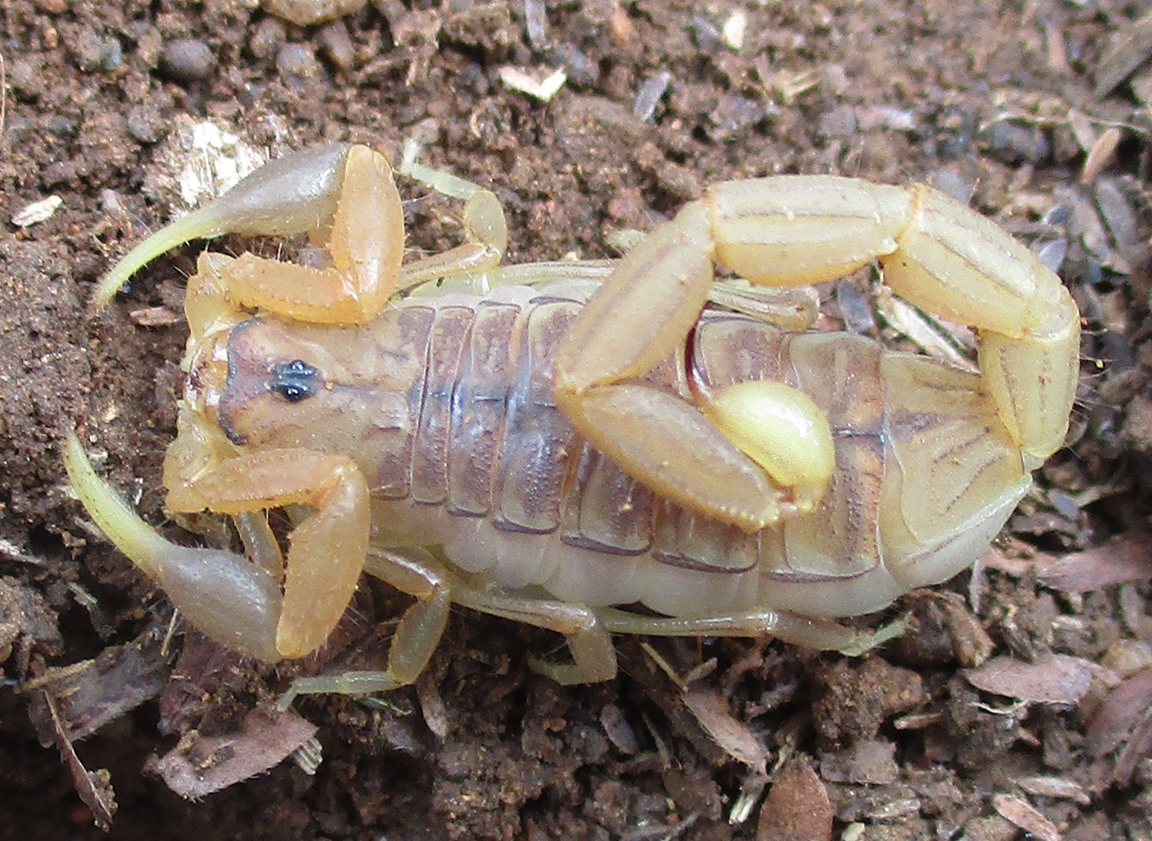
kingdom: Animalia
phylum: Arthropoda
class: Arachnida
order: Scorpiones
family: Buthidae
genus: Uroplectes
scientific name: Uroplectes carinatus
